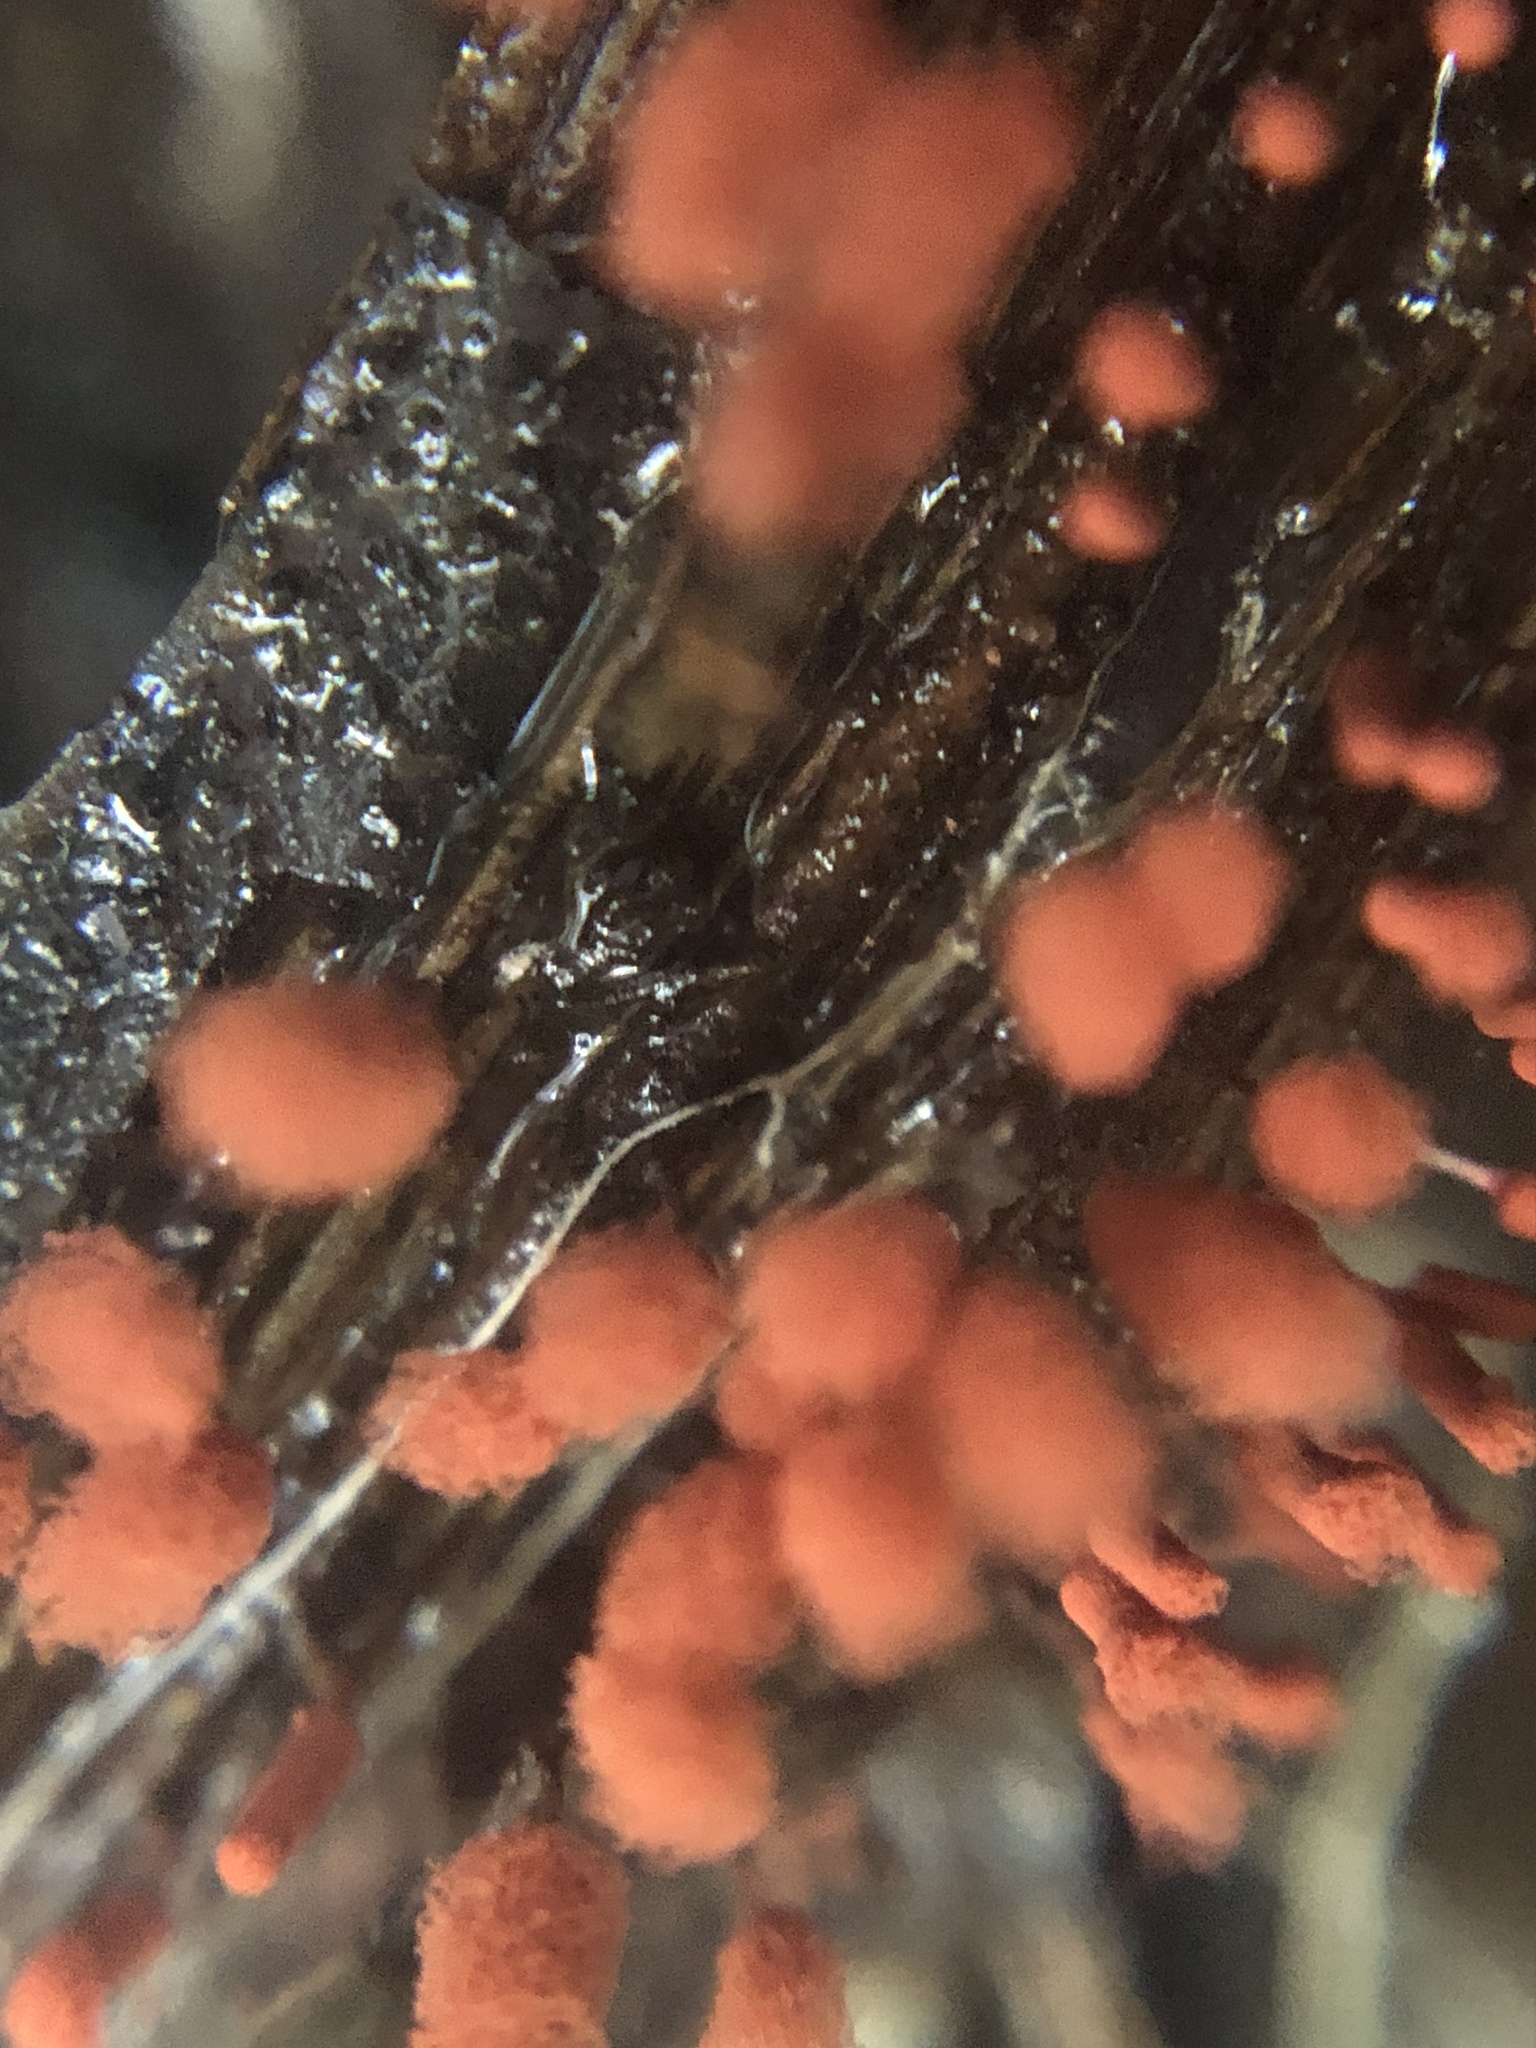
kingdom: Protozoa
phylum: Mycetozoa
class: Myxomycetes
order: Trichiales
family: Arcyriaceae
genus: Arcyria
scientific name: Arcyria denudata
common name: Carnival candy slime mold
